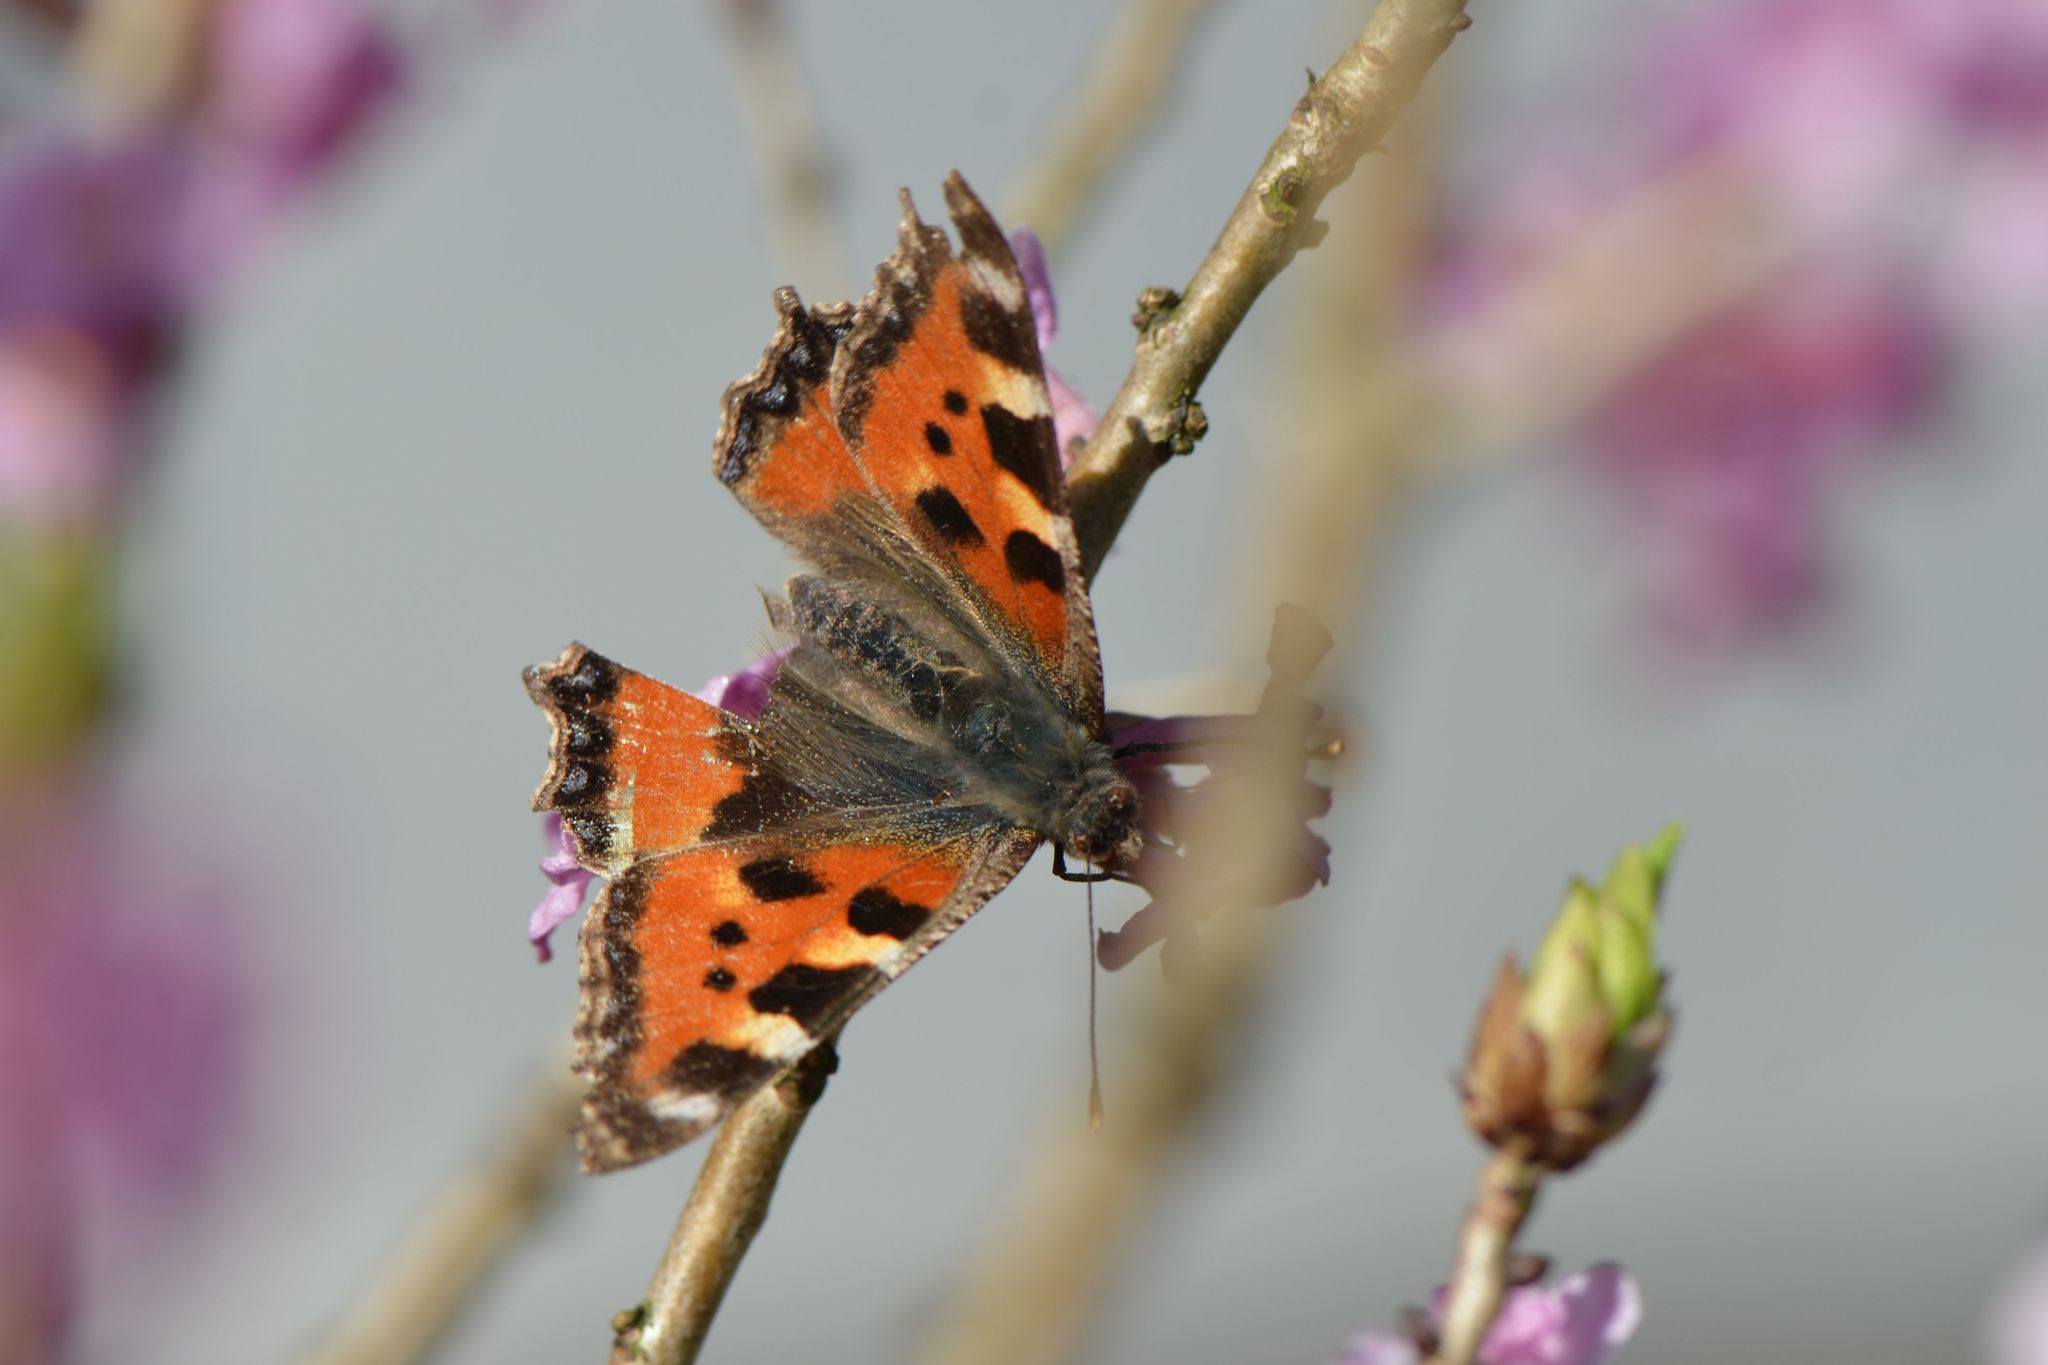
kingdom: Animalia
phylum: Arthropoda
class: Insecta
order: Lepidoptera
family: Nymphalidae
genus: Aglais
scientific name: Aglais urticae
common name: Small tortoiseshell
